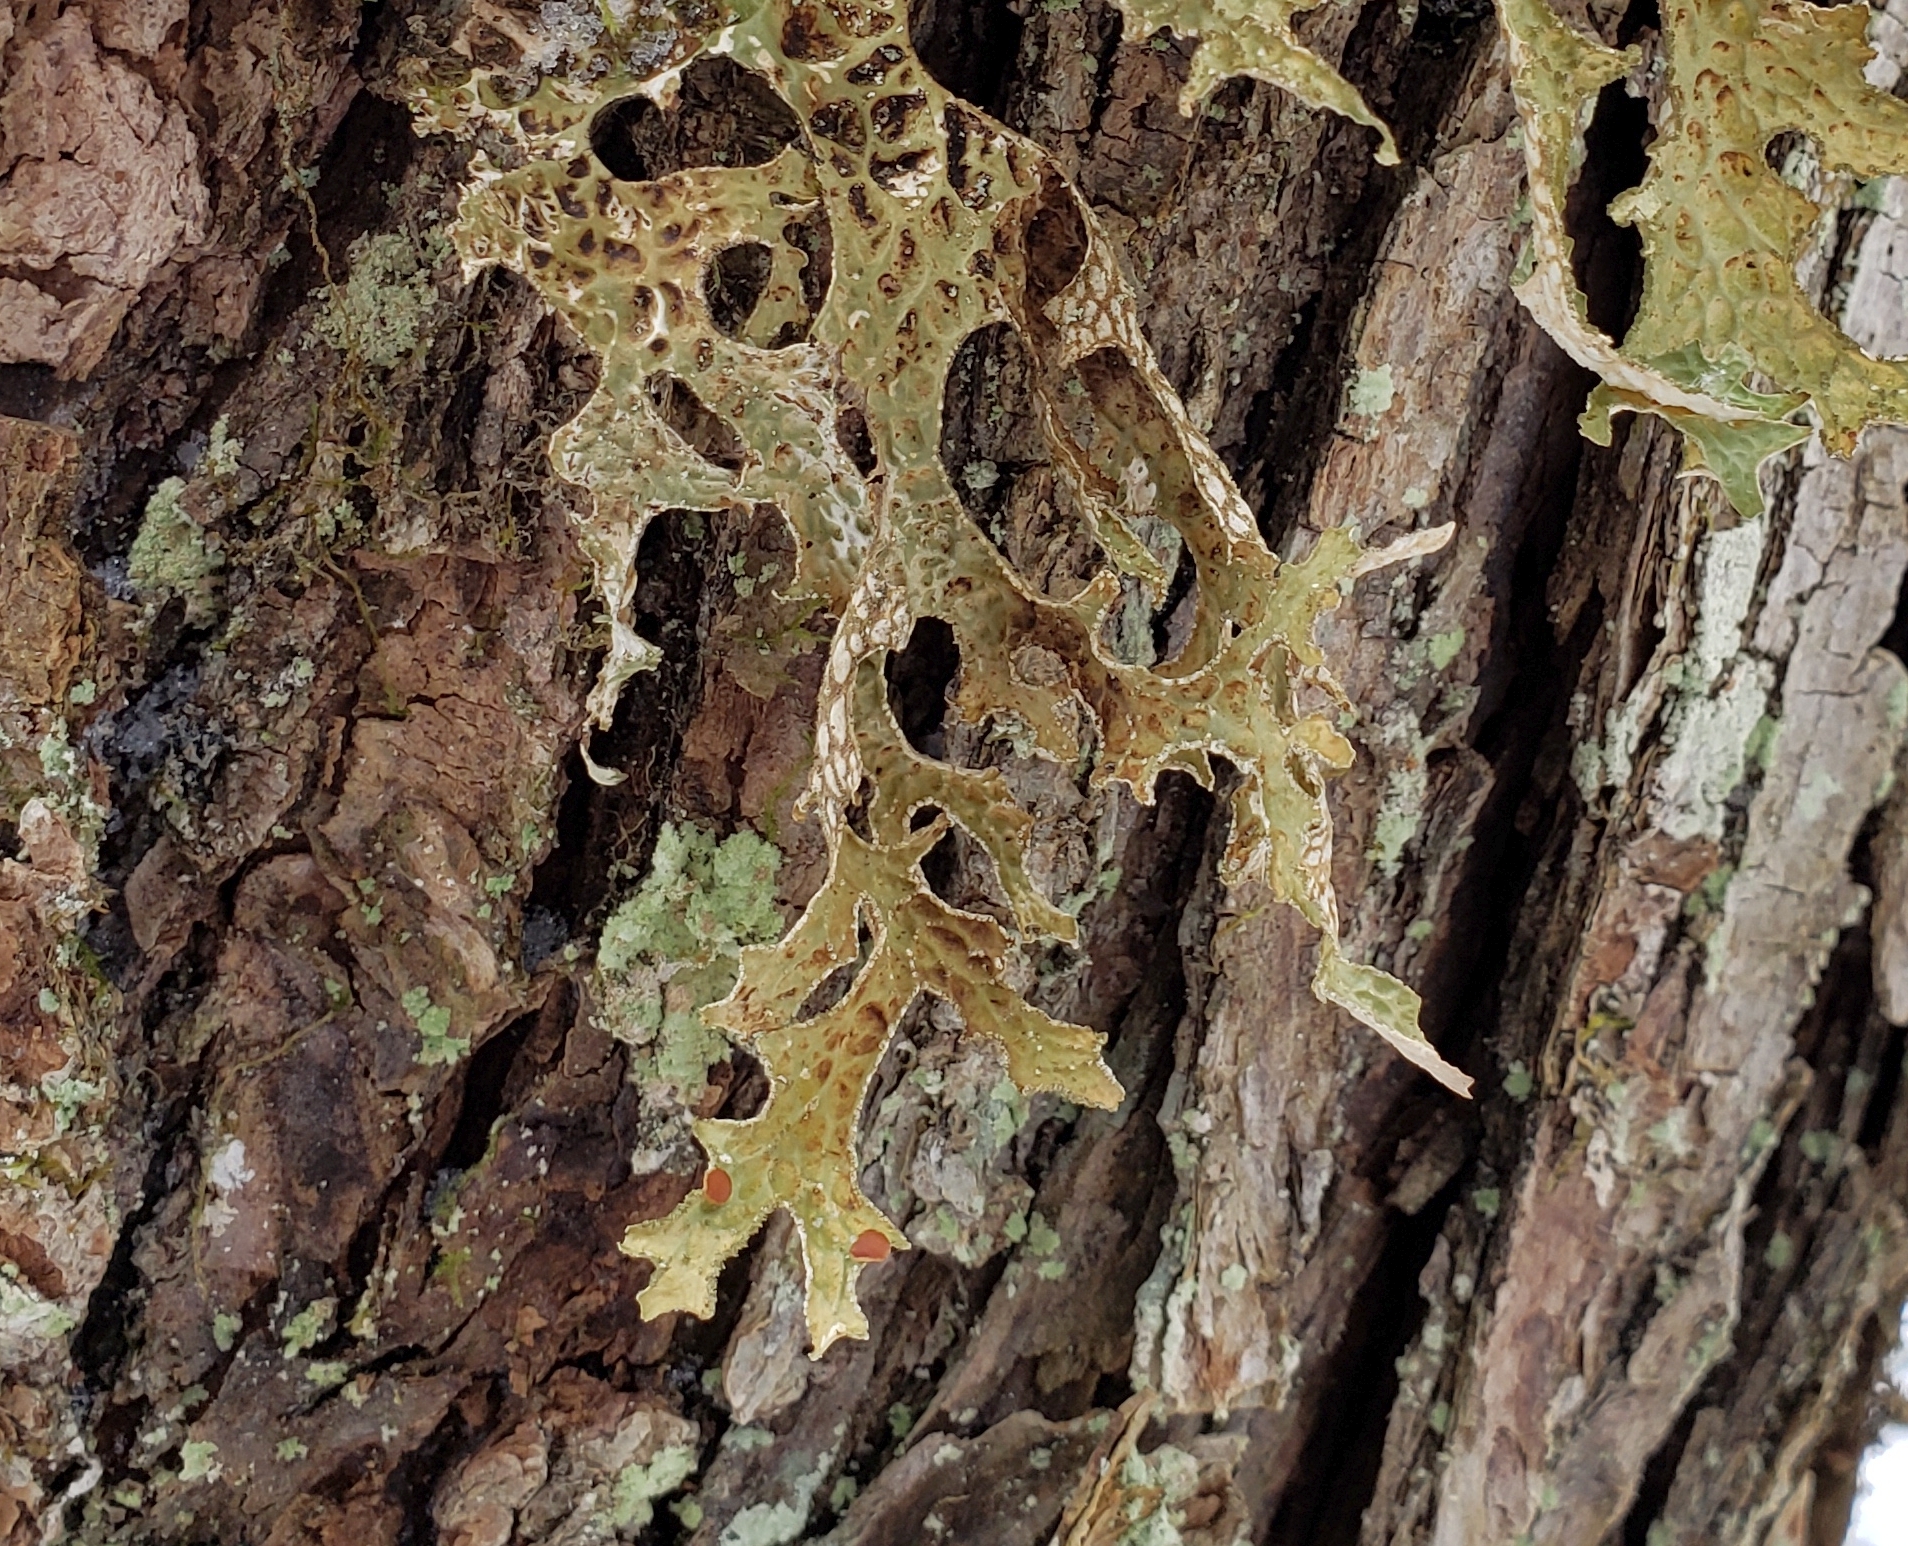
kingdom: Fungi
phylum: Ascomycota
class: Lecanoromycetes
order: Peltigerales
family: Lobariaceae
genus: Lobaria
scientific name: Lobaria pulmonaria
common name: Lungwort
